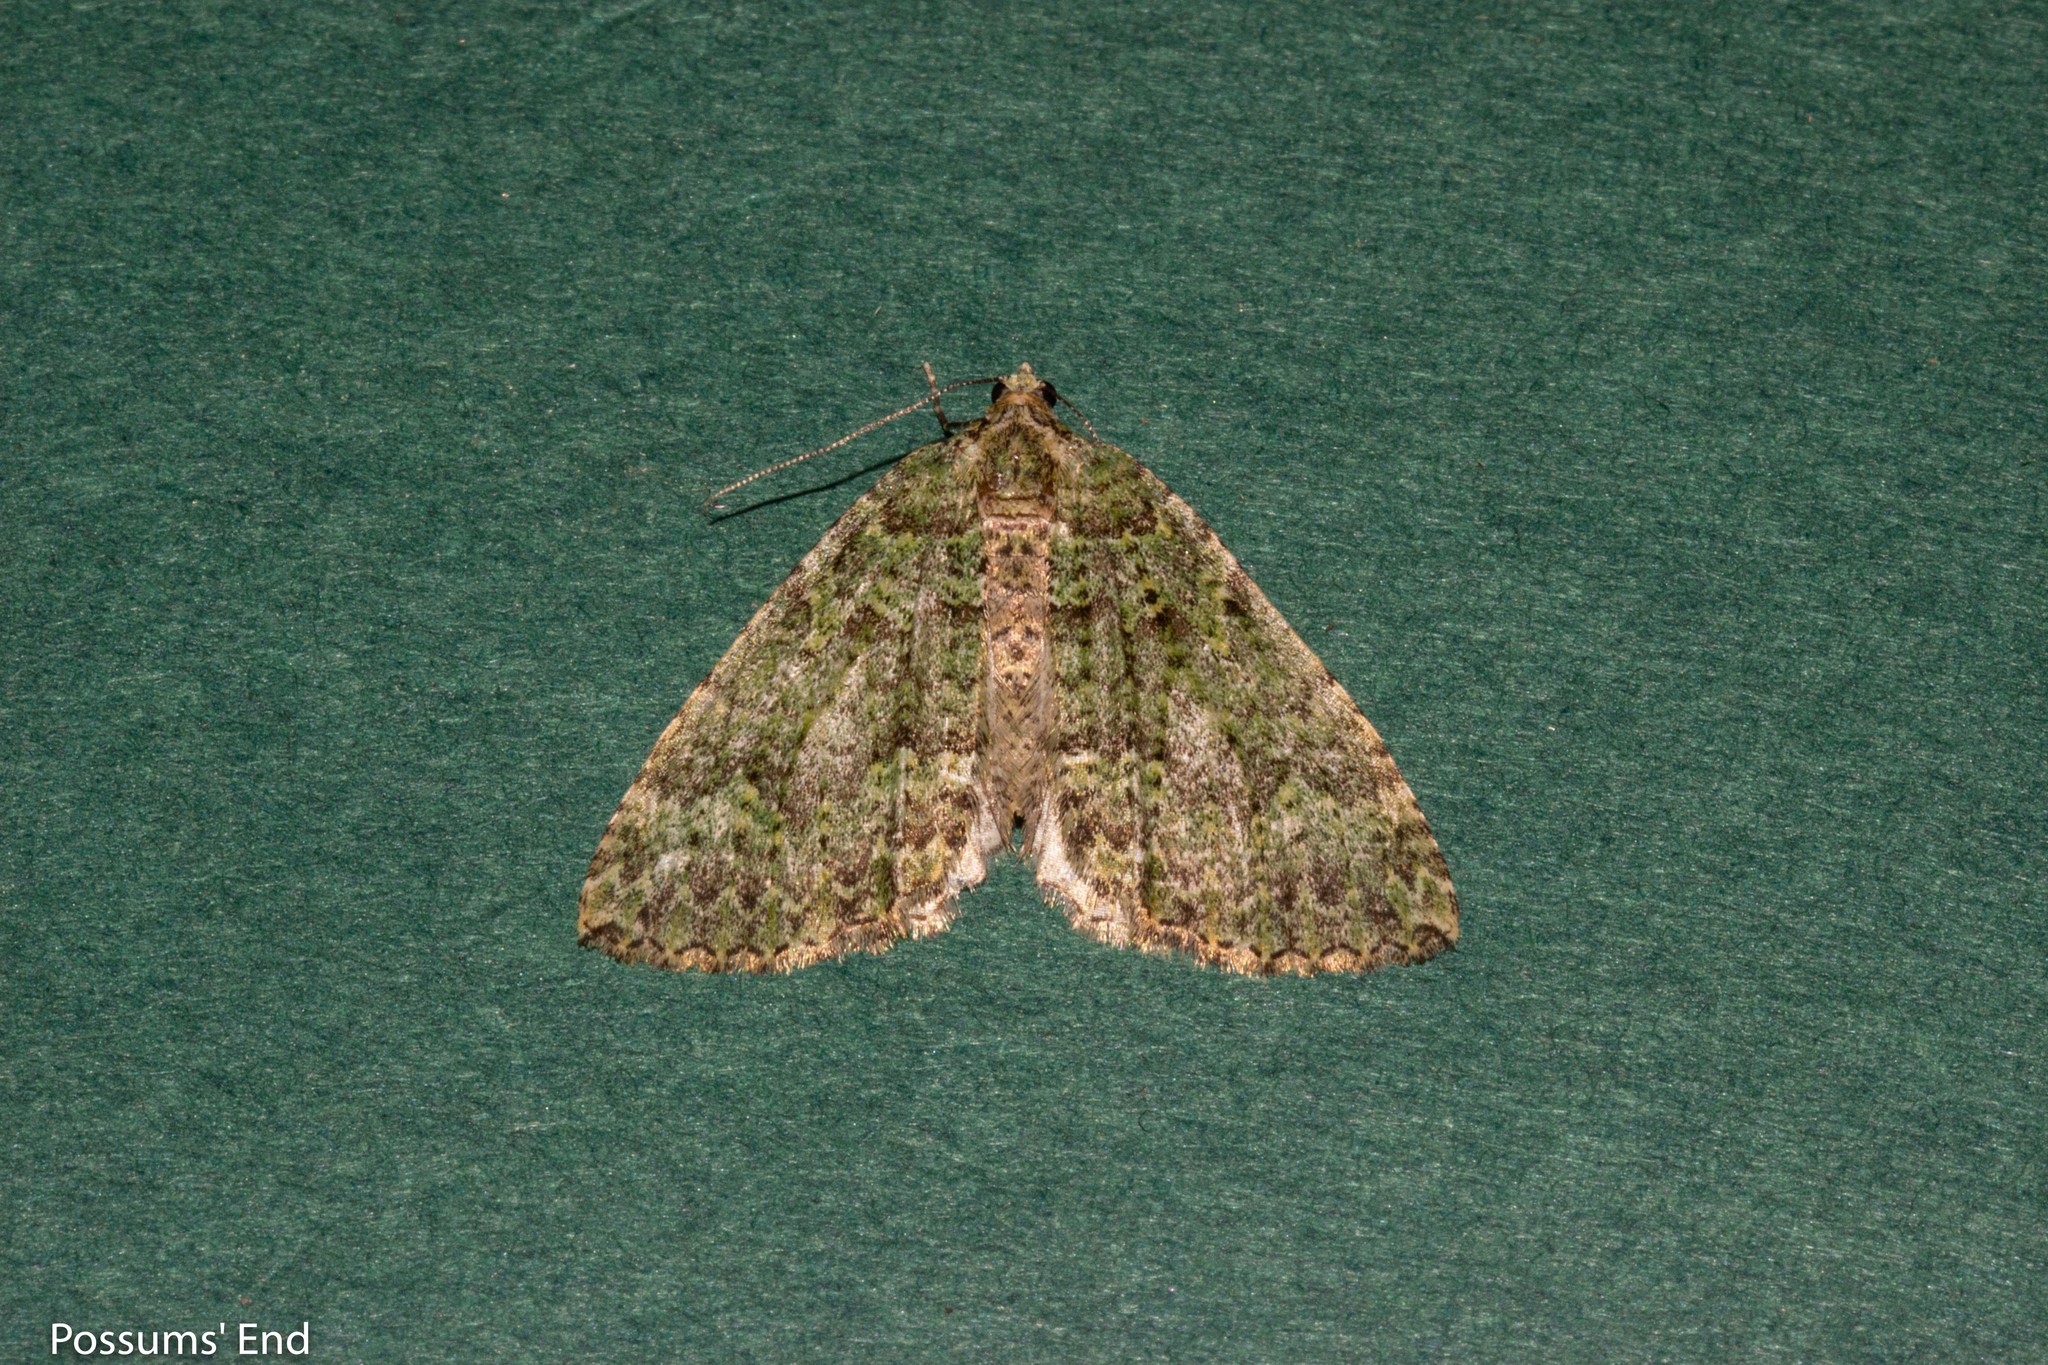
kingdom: Animalia
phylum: Arthropoda
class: Insecta
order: Lepidoptera
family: Geometridae
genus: Austrocidaria
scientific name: Austrocidaria callichlora
